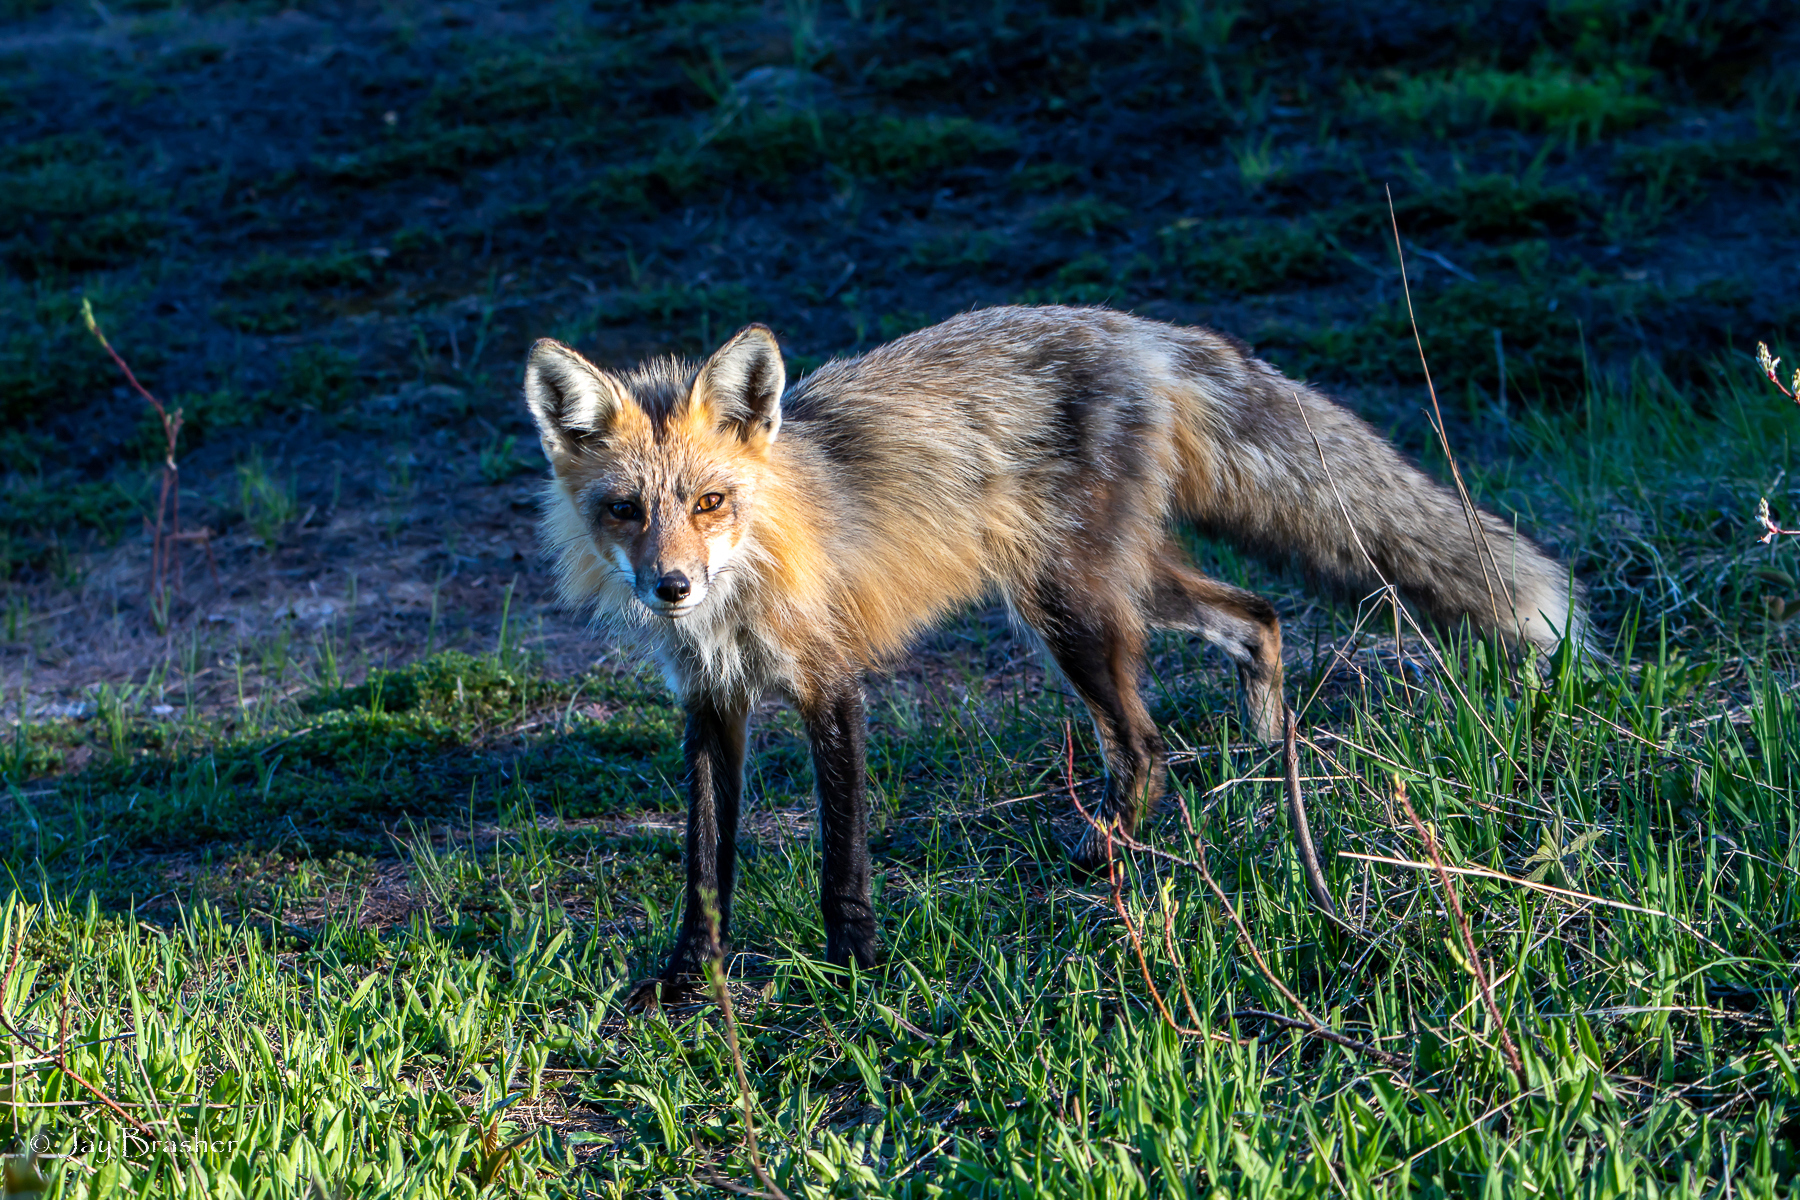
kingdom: Animalia
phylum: Chordata
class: Mammalia
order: Carnivora
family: Canidae
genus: Vulpes
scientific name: Vulpes vulpes
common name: Red fox
